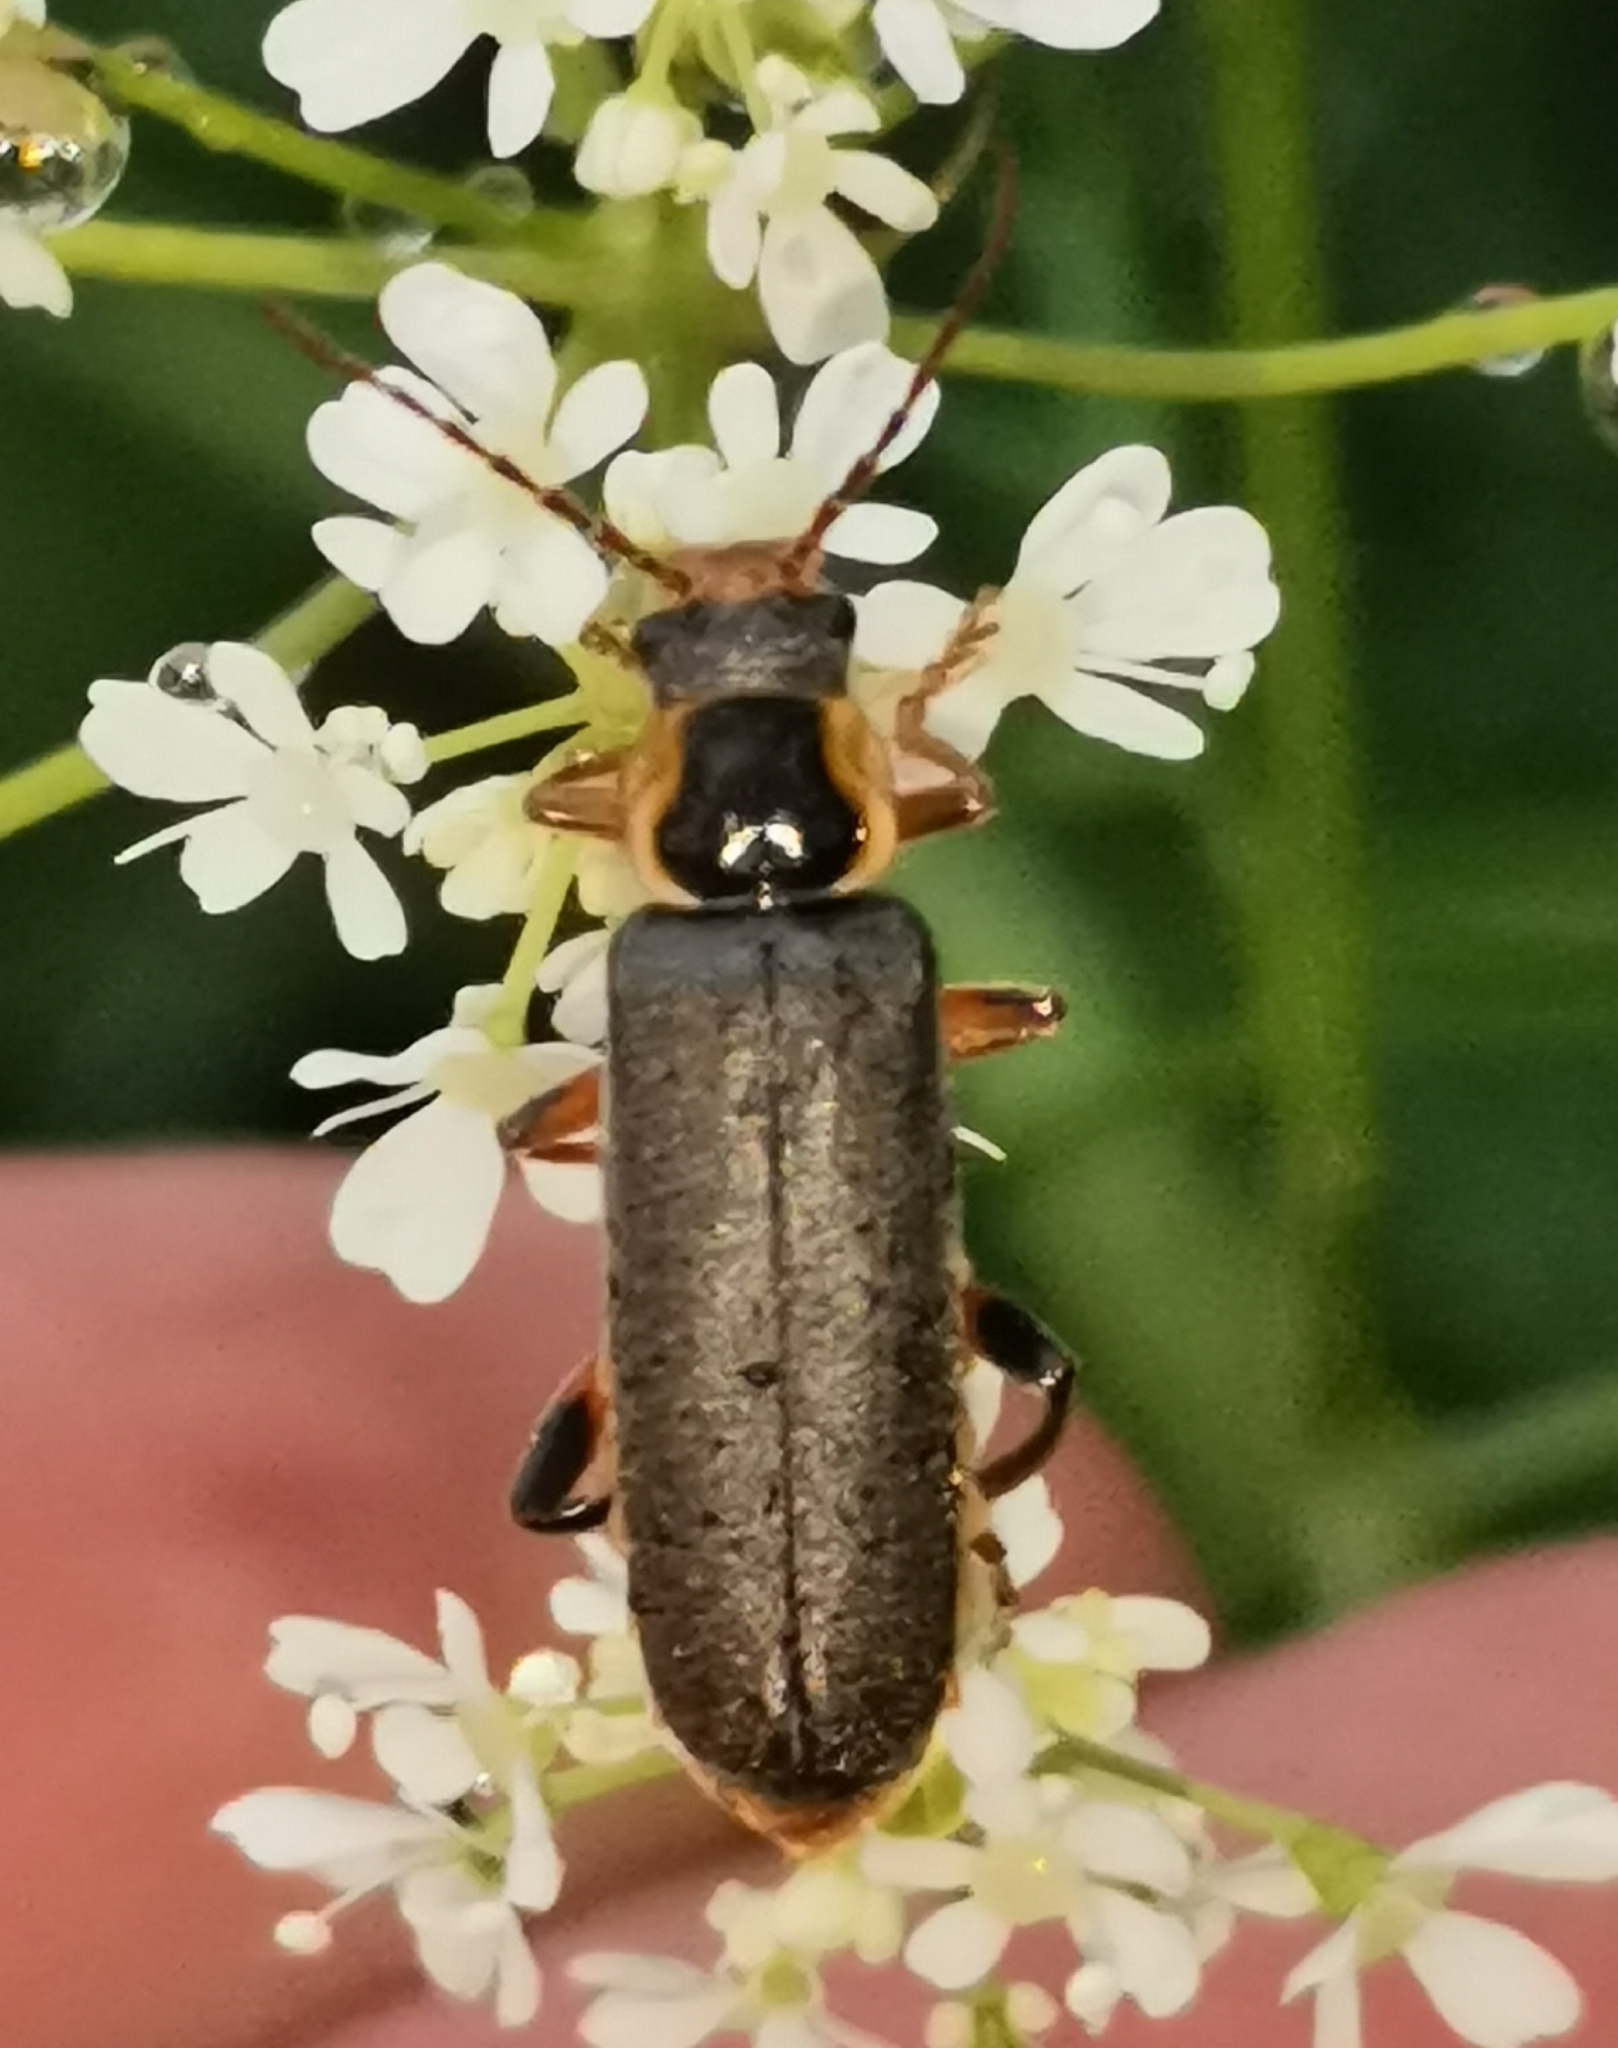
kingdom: Animalia
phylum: Arthropoda
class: Insecta
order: Coleoptera
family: Cantharidae
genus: Cantharis
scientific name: Cantharis nigricans
